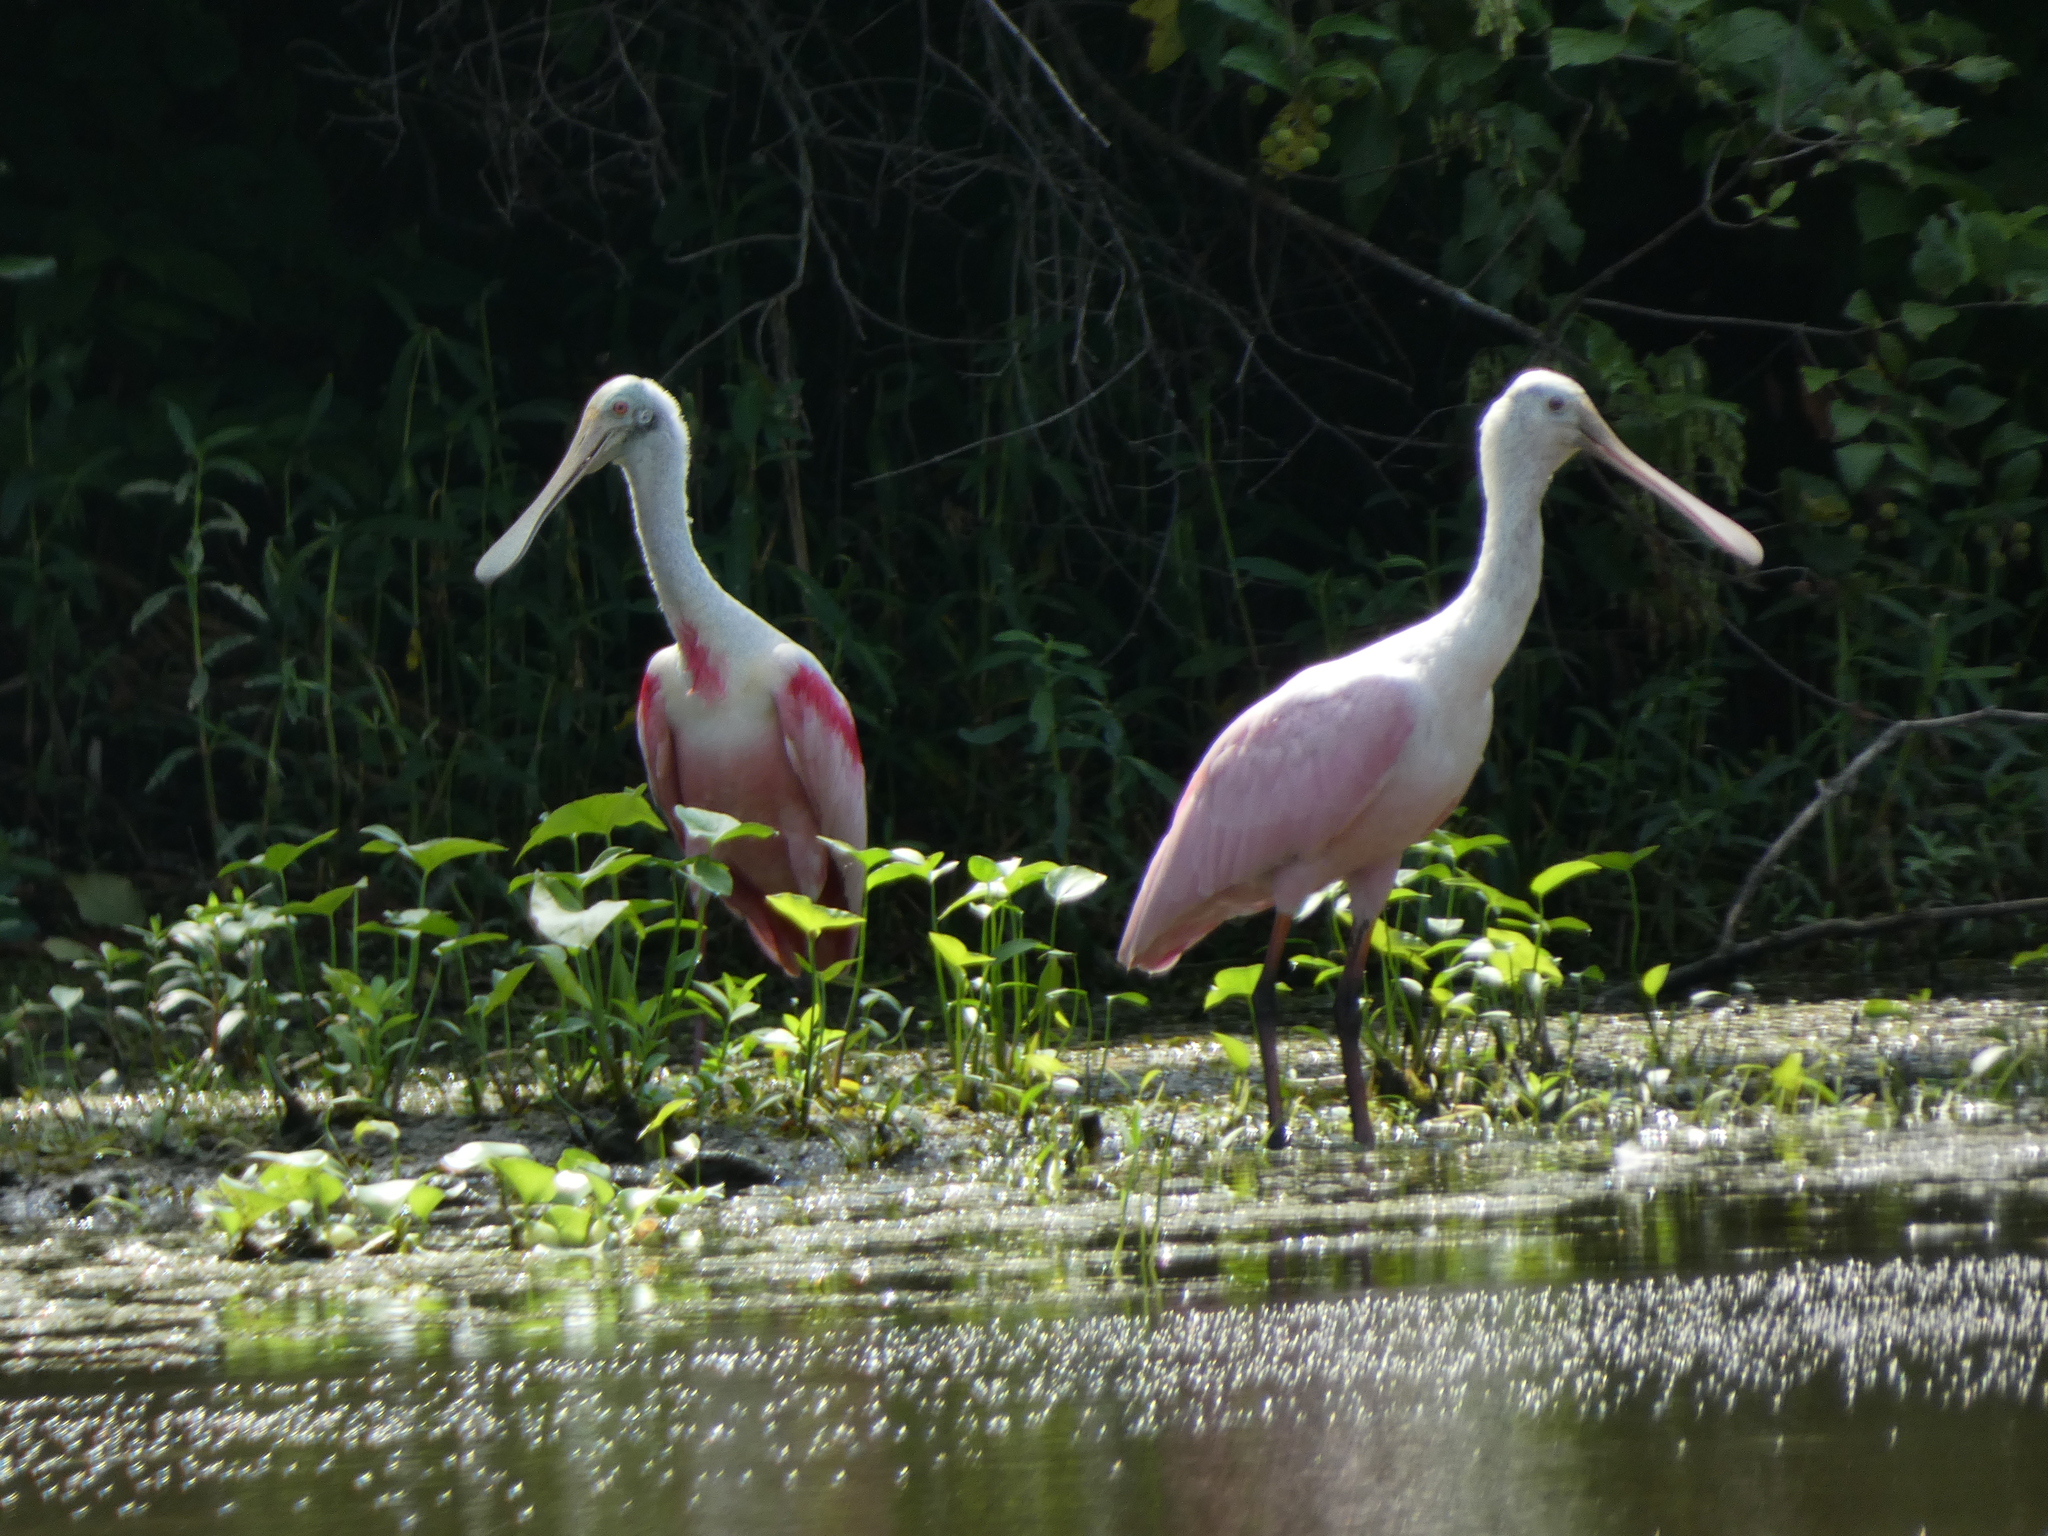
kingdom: Animalia
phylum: Chordata
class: Aves
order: Pelecaniformes
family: Threskiornithidae
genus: Platalea
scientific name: Platalea ajaja
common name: Roseate spoonbill
